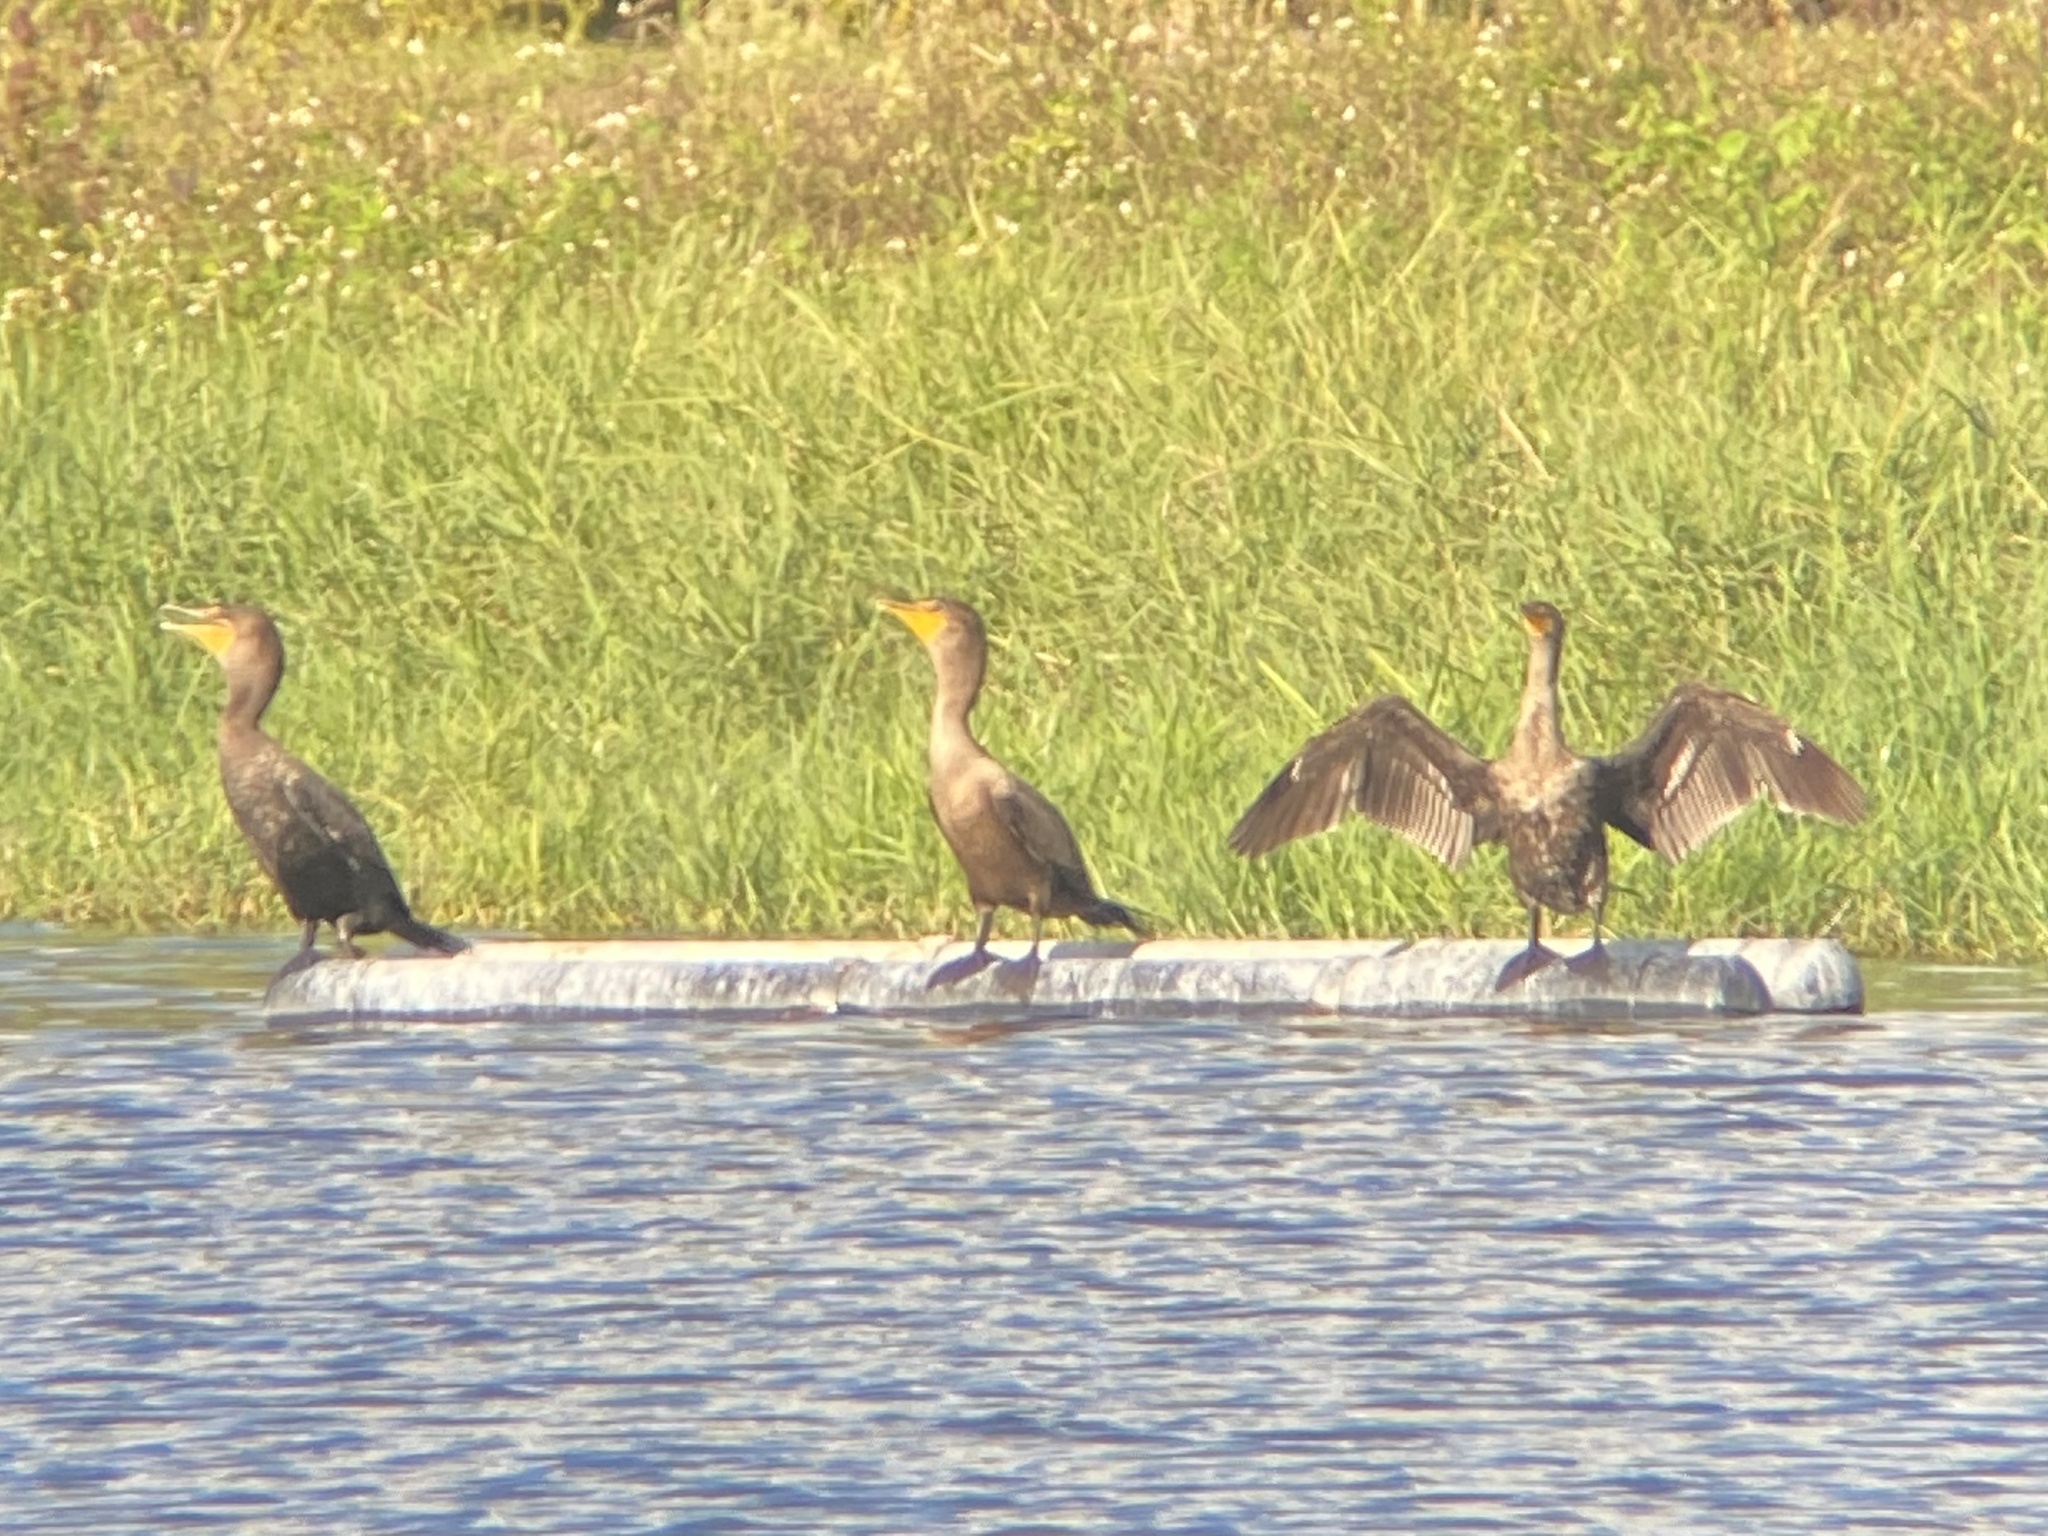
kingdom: Animalia
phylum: Chordata
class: Aves
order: Suliformes
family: Phalacrocoracidae
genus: Phalacrocorax
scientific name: Phalacrocorax auritus
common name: Double-crested cormorant
